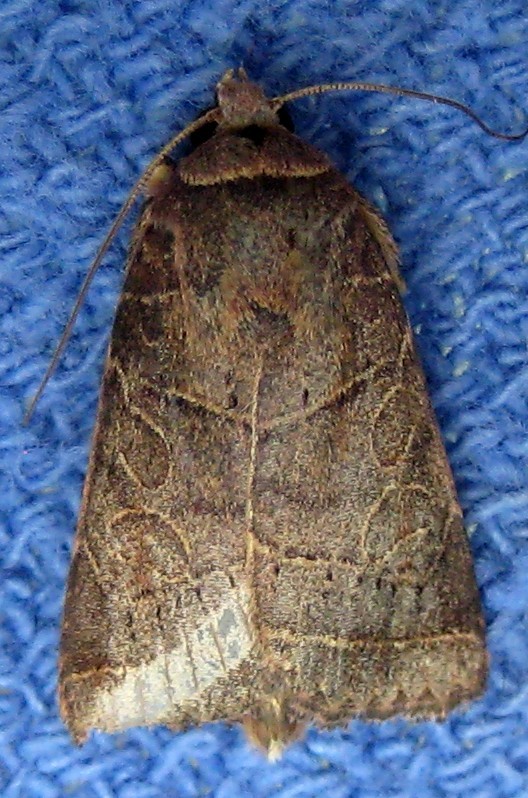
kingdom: Animalia
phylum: Arthropoda
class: Insecta
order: Lepidoptera
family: Noctuidae
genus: Orthodes
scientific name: Orthodes majuscula
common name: Rustic quaker
